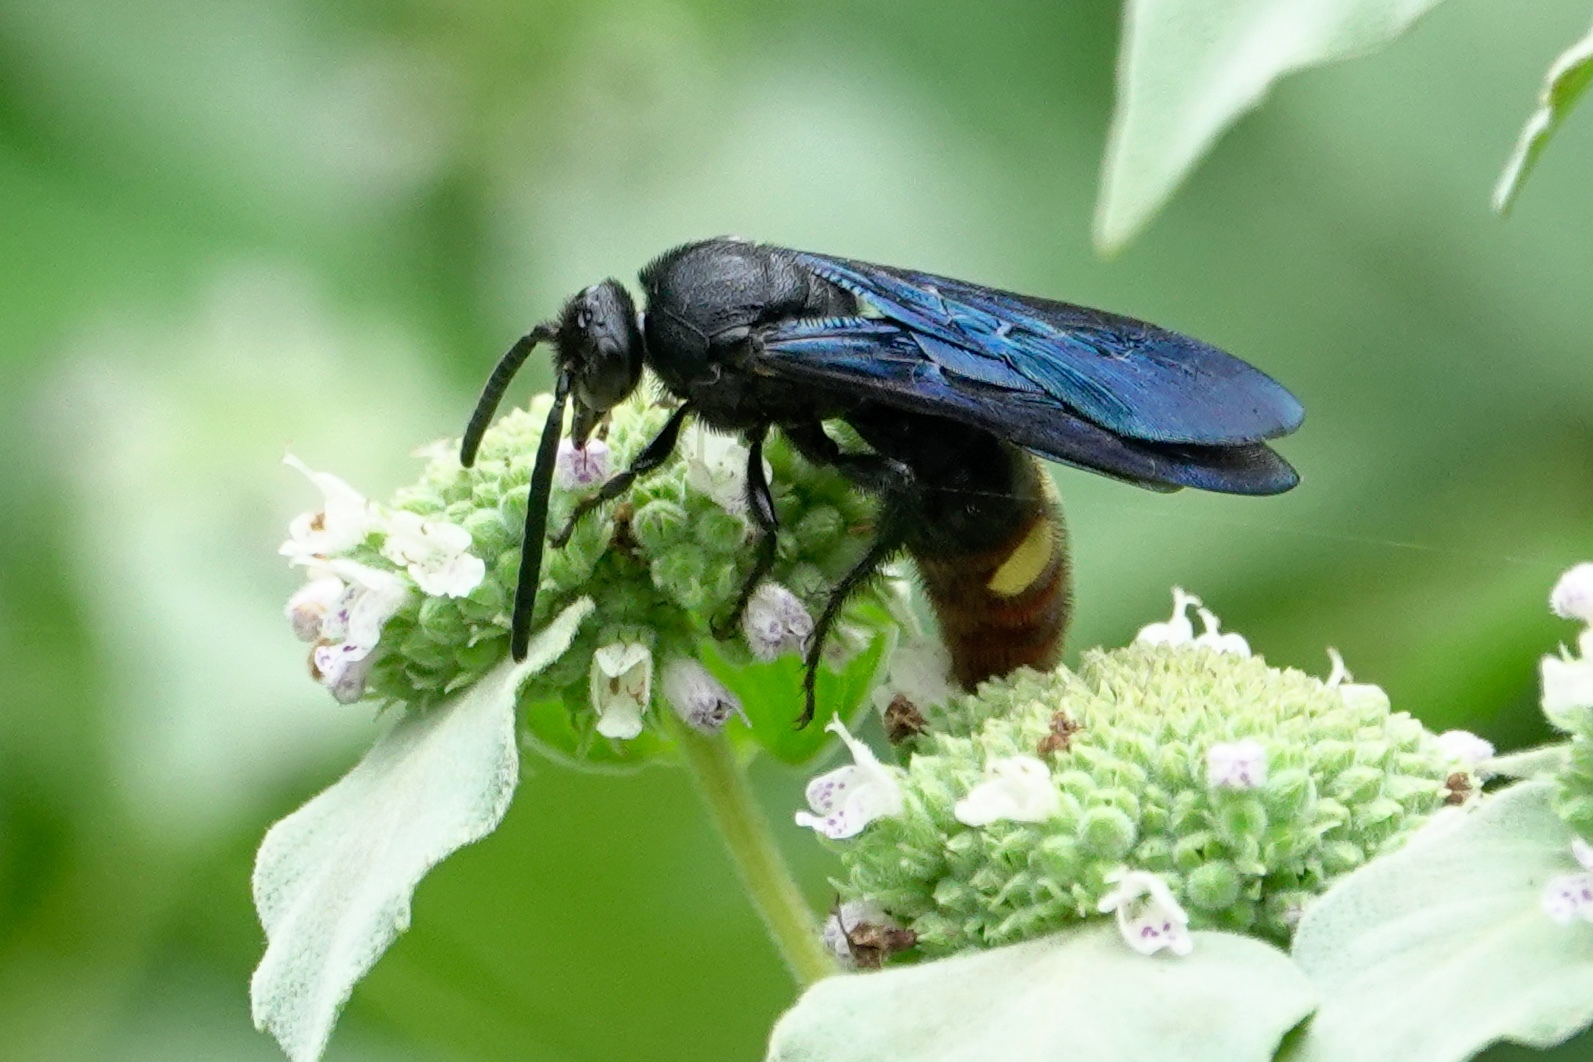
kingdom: Animalia
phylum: Arthropoda
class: Insecta
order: Hymenoptera
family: Scoliidae
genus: Scolia
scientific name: Scolia dubia
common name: Blue-winged scoliid wasp
